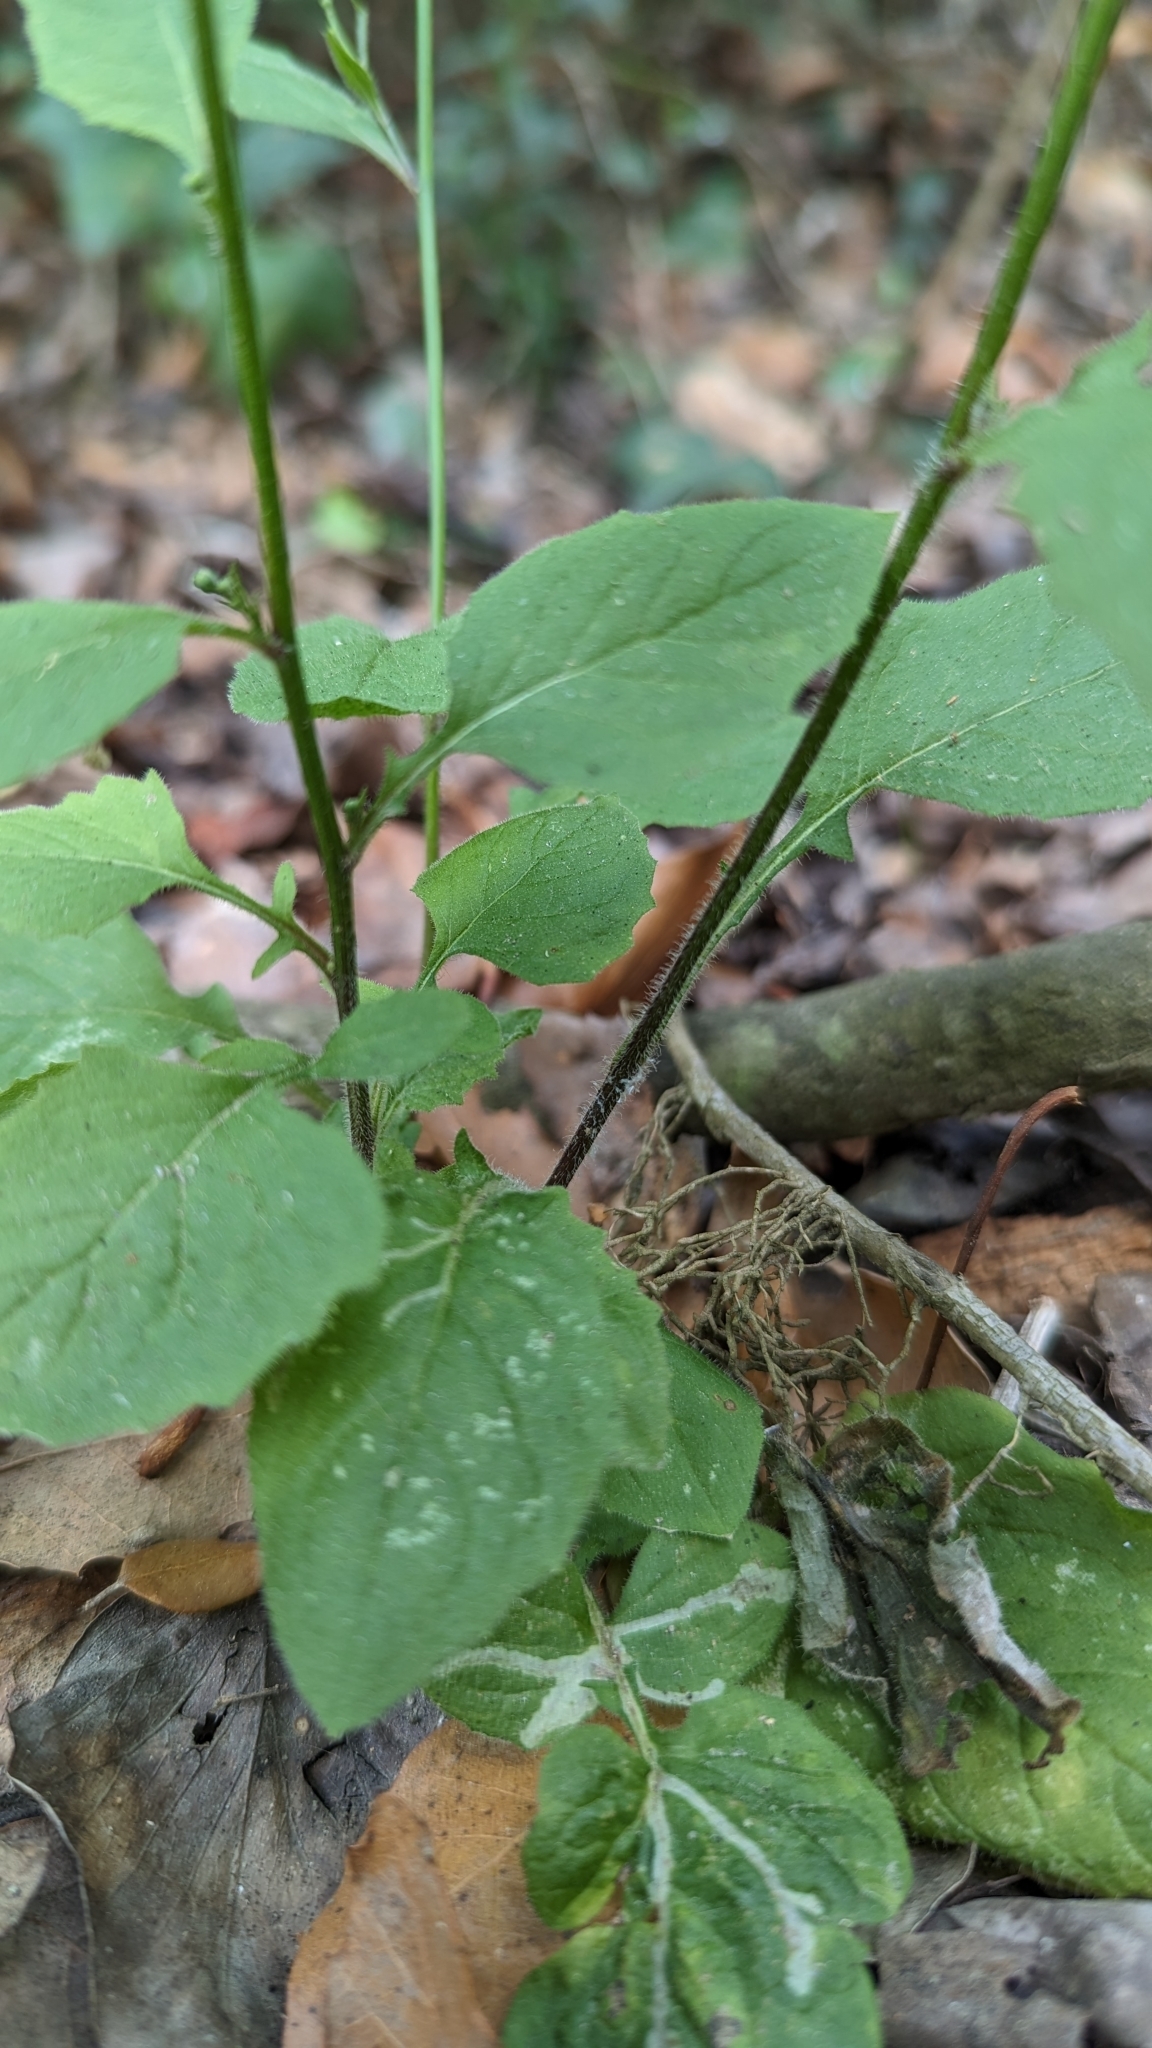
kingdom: Plantae
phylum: Tracheophyta
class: Magnoliopsida
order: Asterales
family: Asteraceae
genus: Lapsana
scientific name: Lapsana communis
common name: Nipplewort
